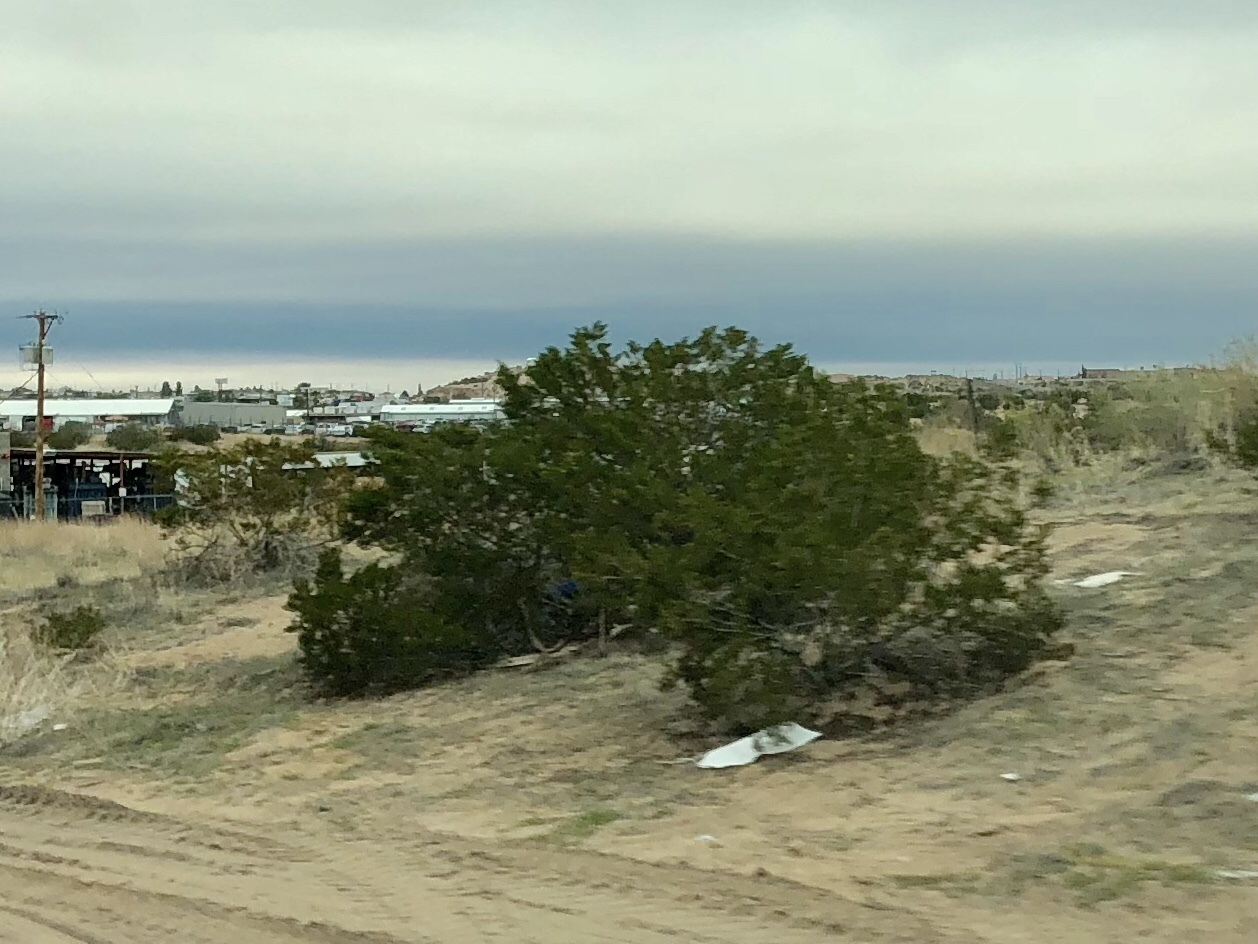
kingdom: Plantae
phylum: Tracheophyta
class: Magnoliopsida
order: Zygophyllales
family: Zygophyllaceae
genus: Larrea
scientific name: Larrea tridentata
